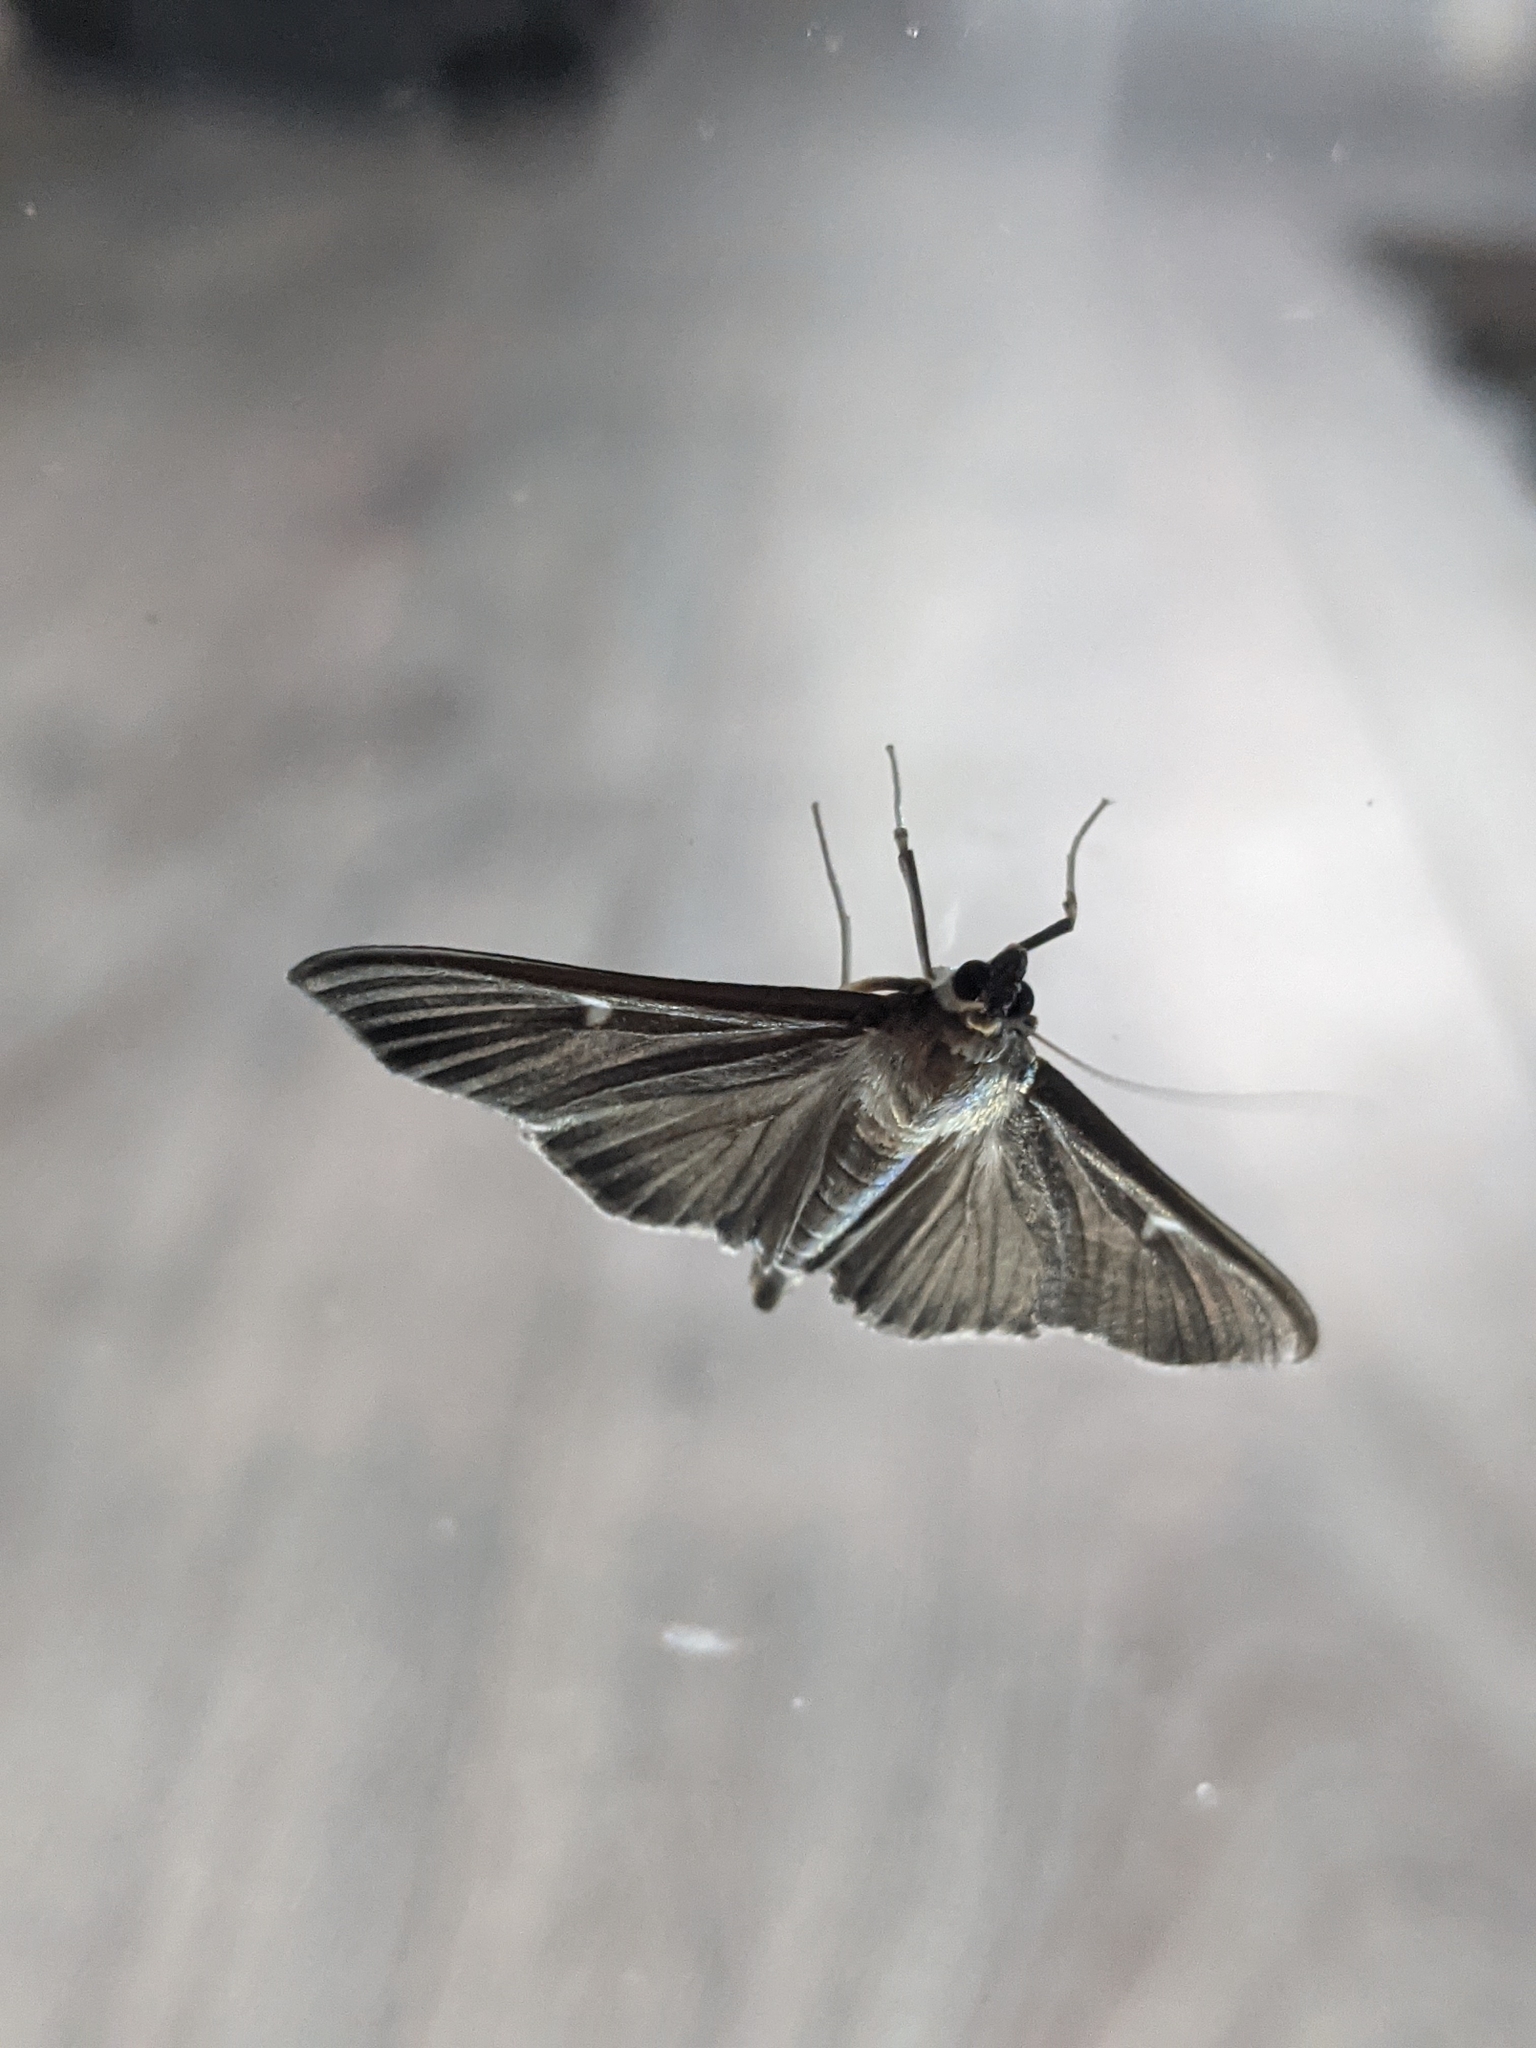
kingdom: Animalia
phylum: Arthropoda
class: Insecta
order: Lepidoptera
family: Crambidae
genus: Cydalima
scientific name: Cydalima perspectalis
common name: Box tree moth
